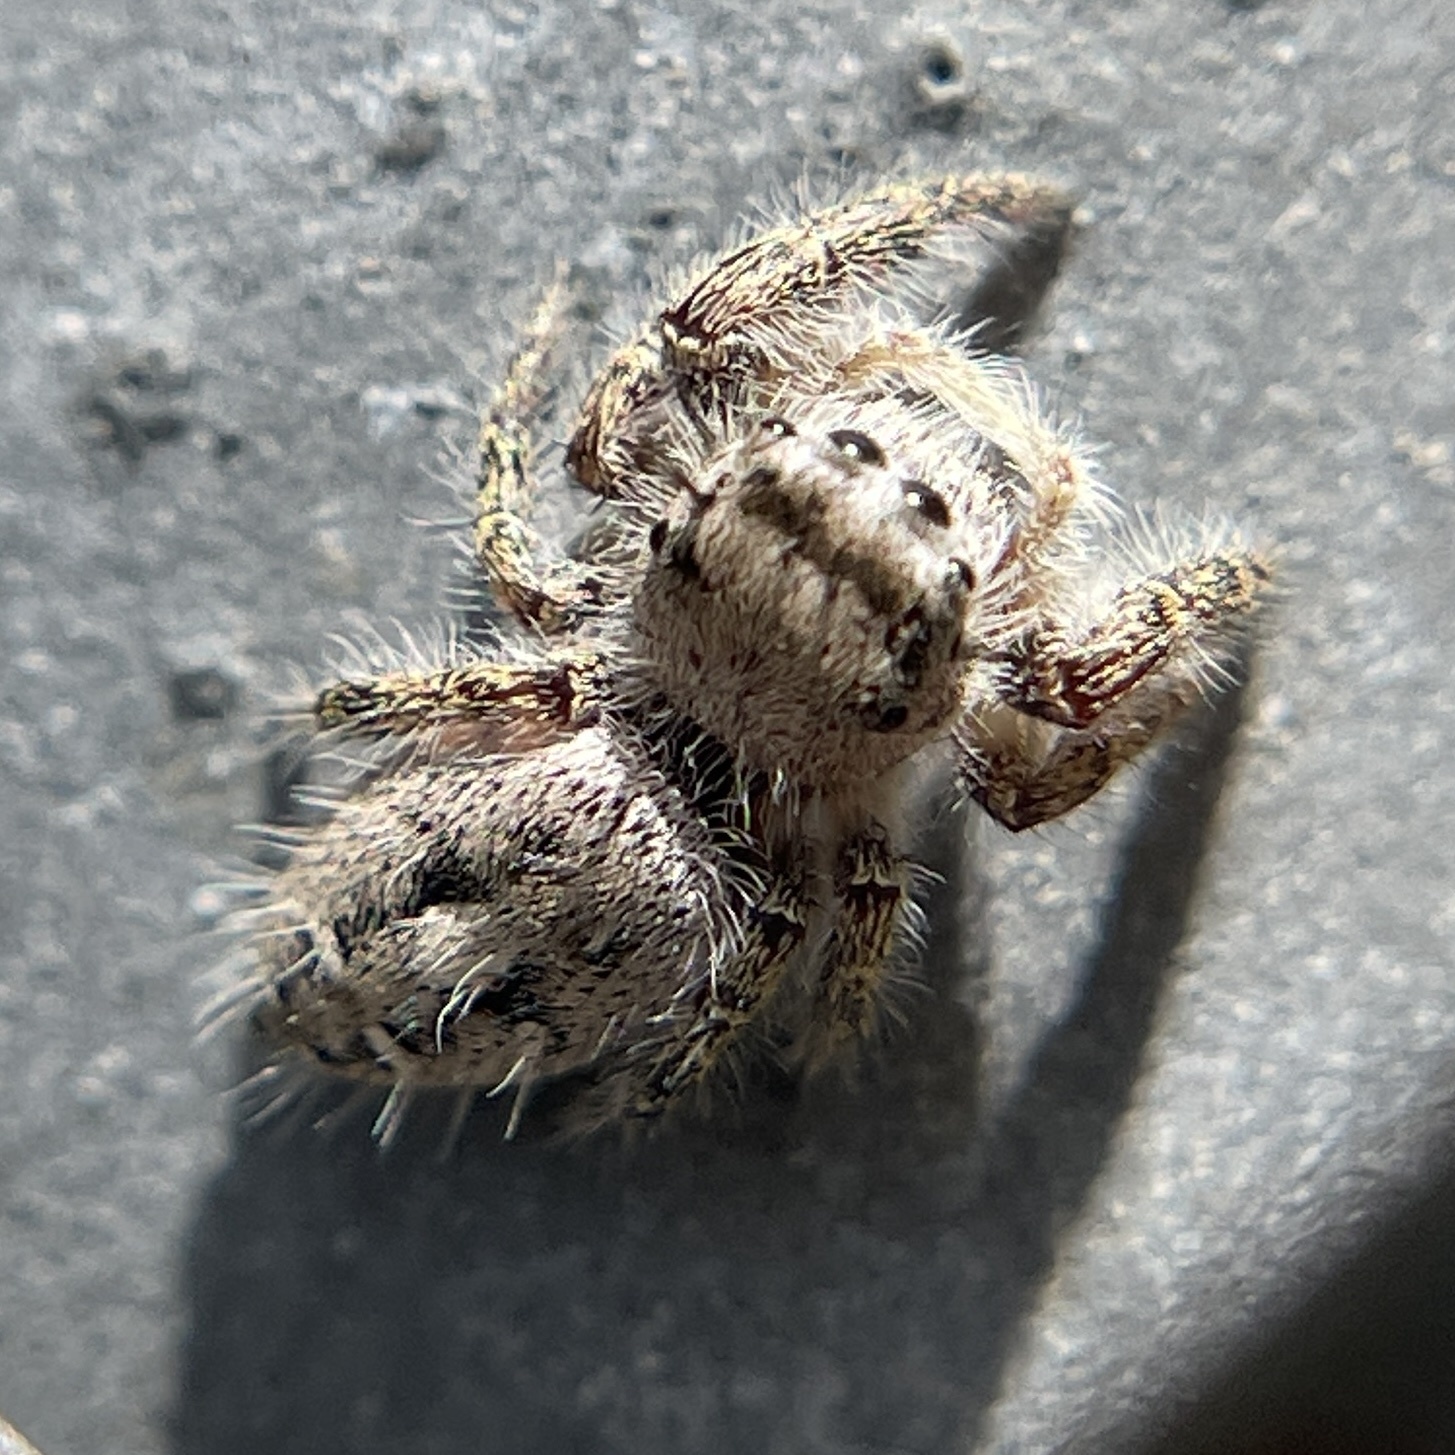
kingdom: Animalia
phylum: Arthropoda
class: Arachnida
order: Araneae
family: Salticidae
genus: Phidippus
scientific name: Phidippus carolinensis
